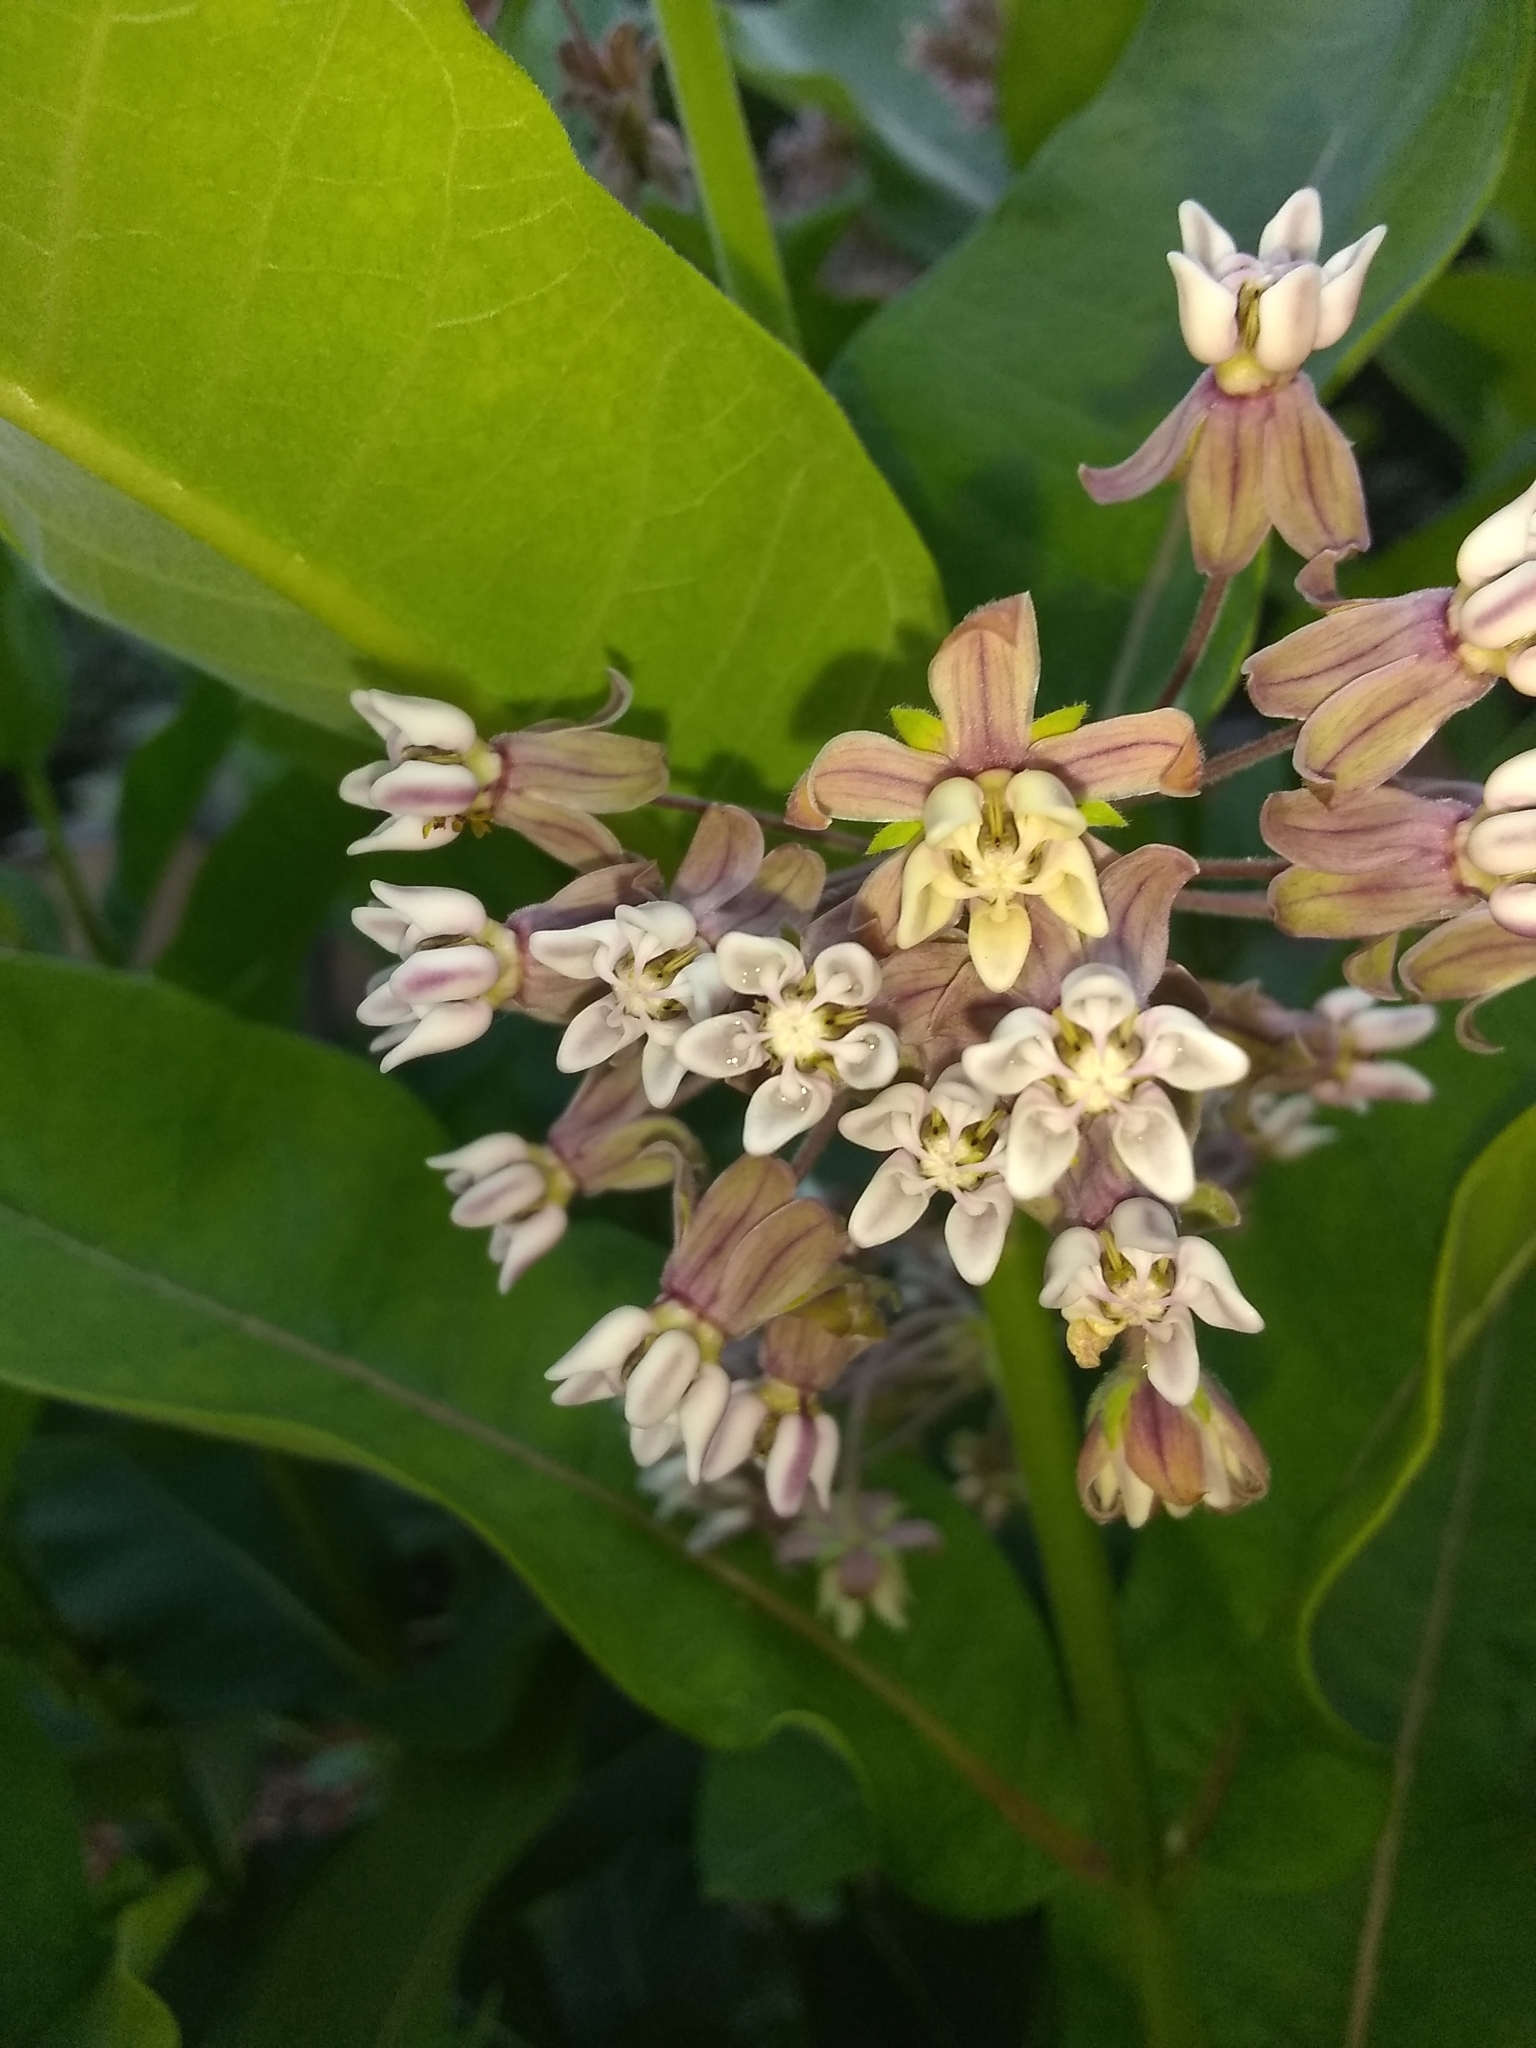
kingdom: Plantae
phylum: Tracheophyta
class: Magnoliopsida
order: Gentianales
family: Apocynaceae
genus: Asclepias
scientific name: Asclepias syriaca
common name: Common milkweed
